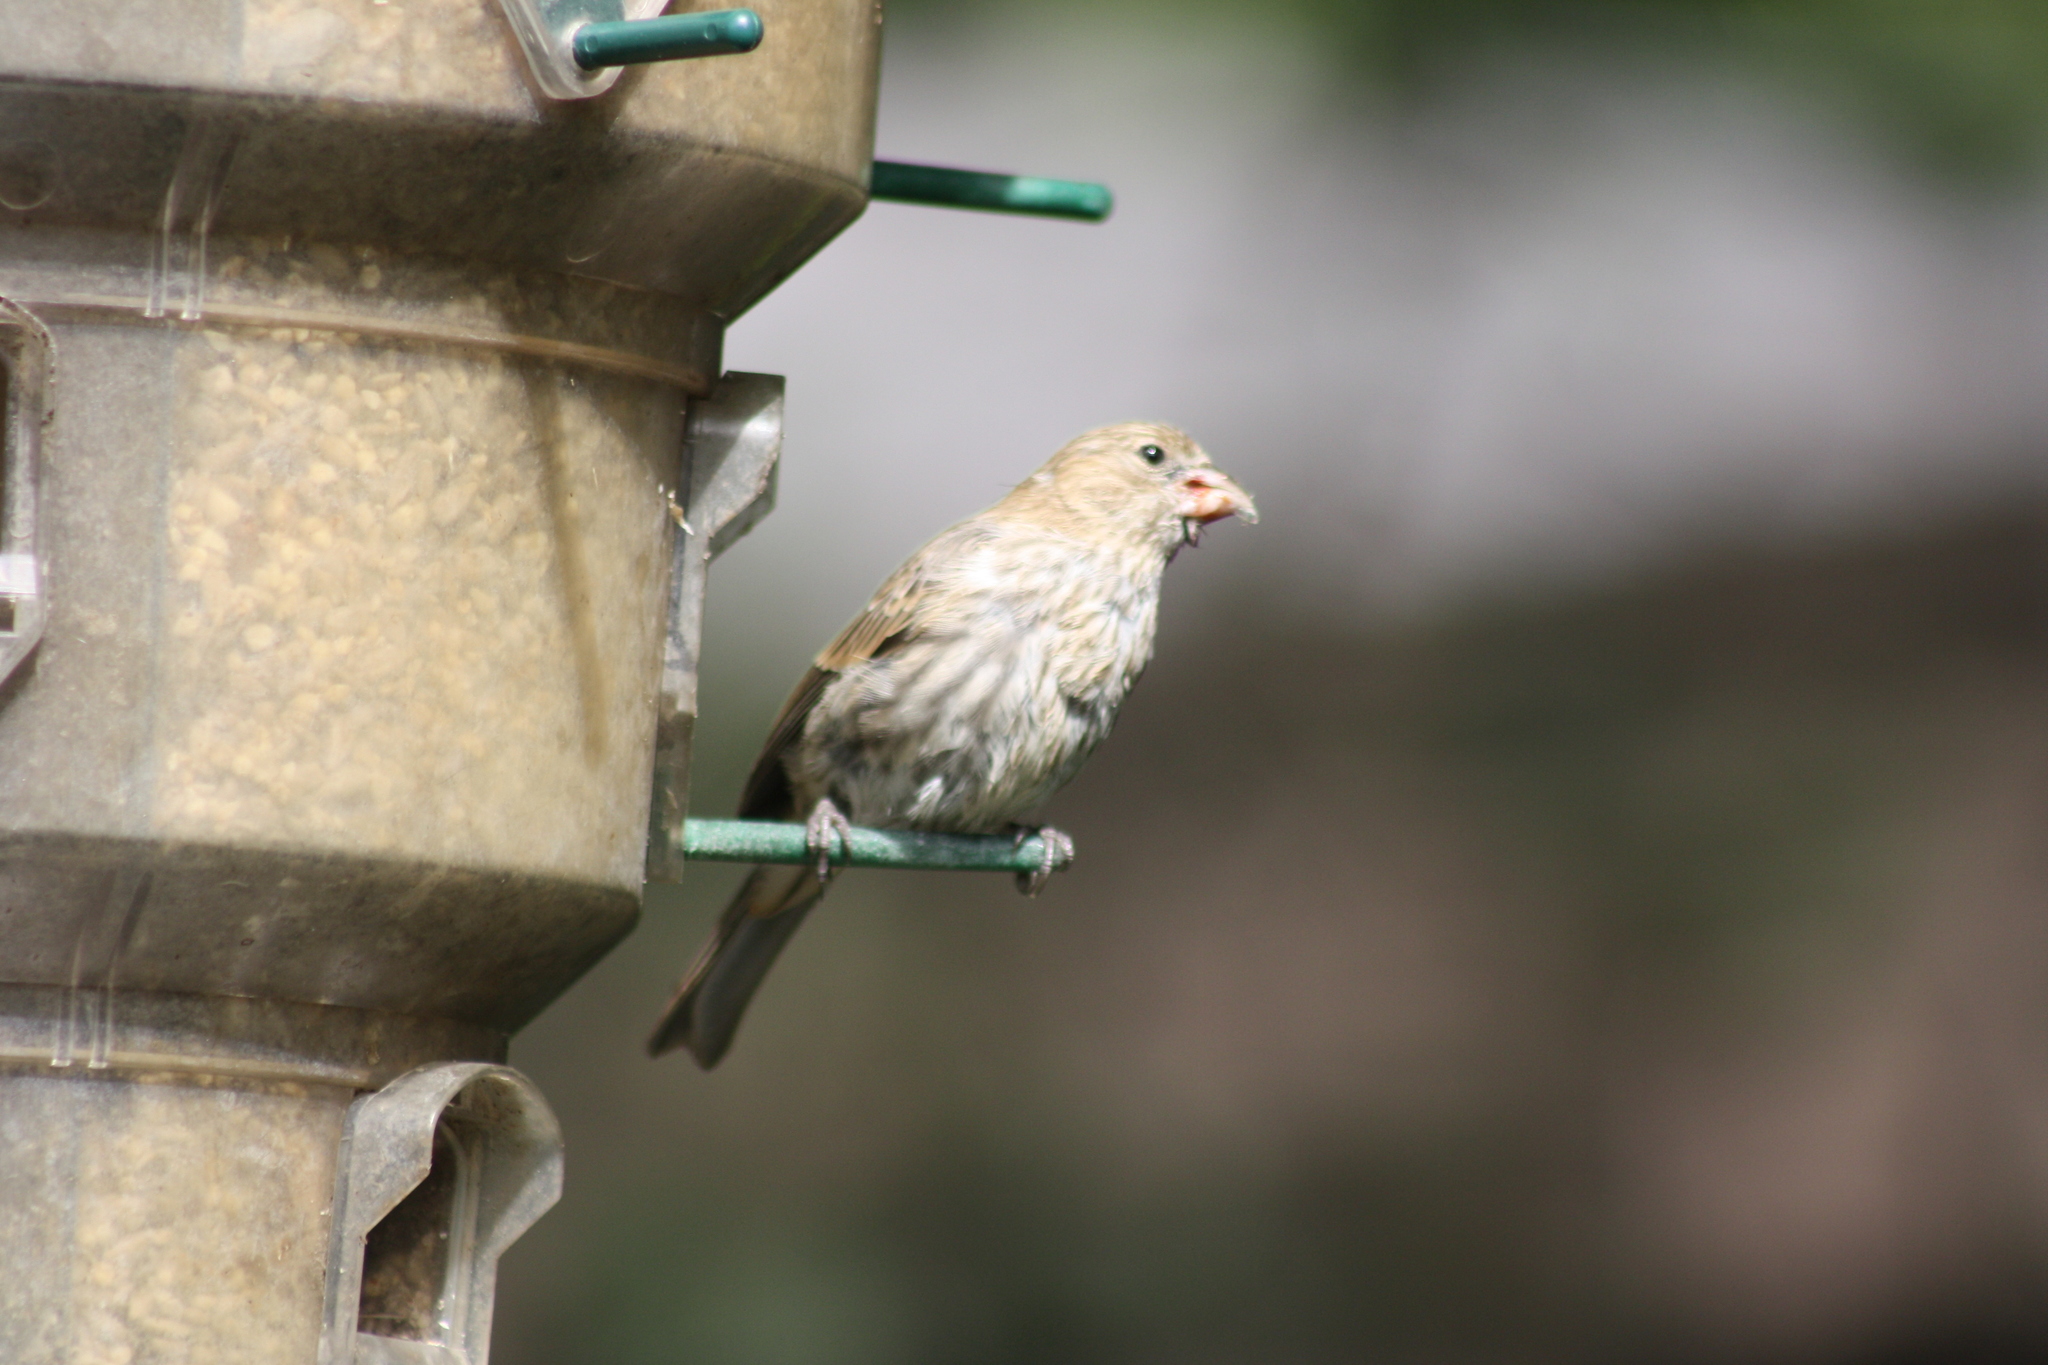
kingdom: Animalia
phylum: Chordata
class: Aves
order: Passeriformes
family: Fringillidae
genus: Haemorhous
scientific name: Haemorhous mexicanus
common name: House finch
